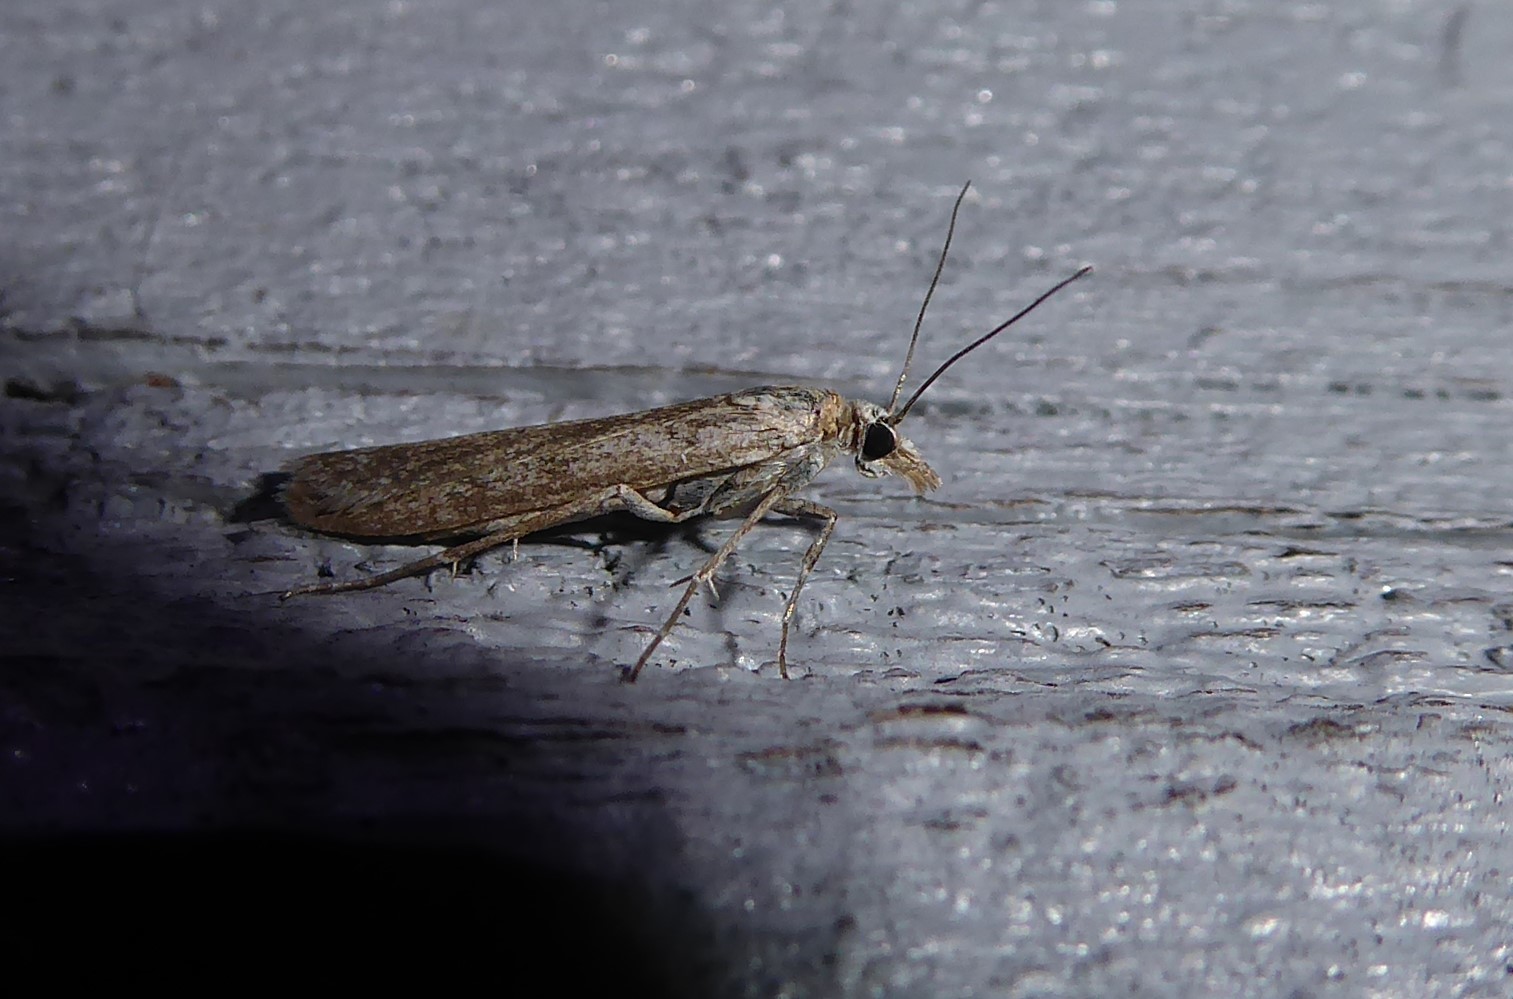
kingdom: Animalia
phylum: Arthropoda
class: Insecta
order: Lepidoptera
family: Crambidae
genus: Eudonia
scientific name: Eudonia leptalea
